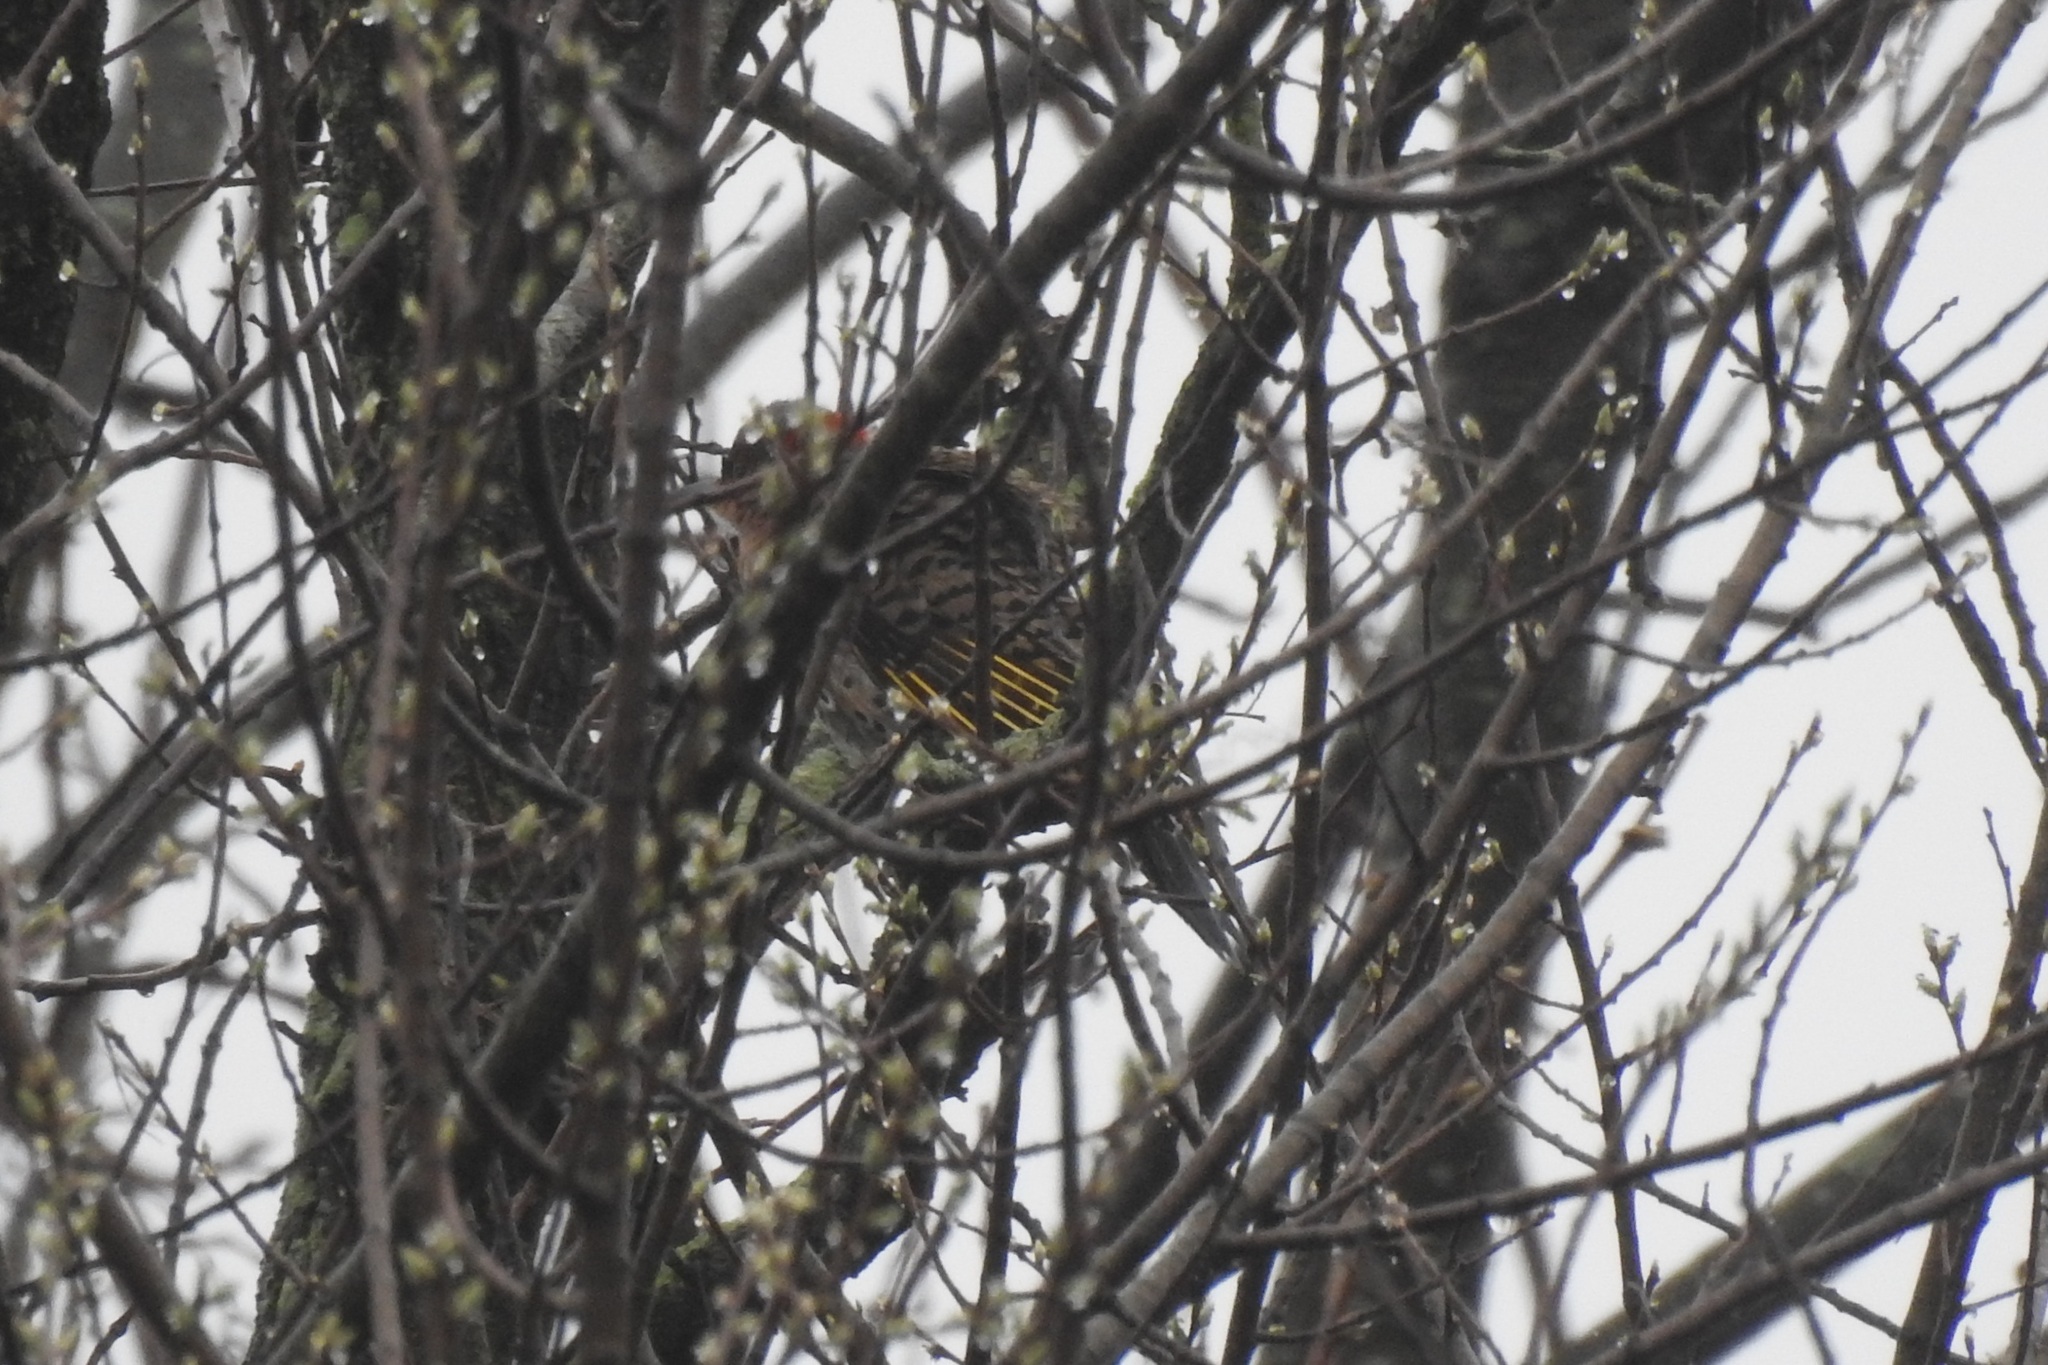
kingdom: Animalia
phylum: Chordata
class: Aves
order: Piciformes
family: Picidae
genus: Colaptes
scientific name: Colaptes auratus
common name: Northern flicker
